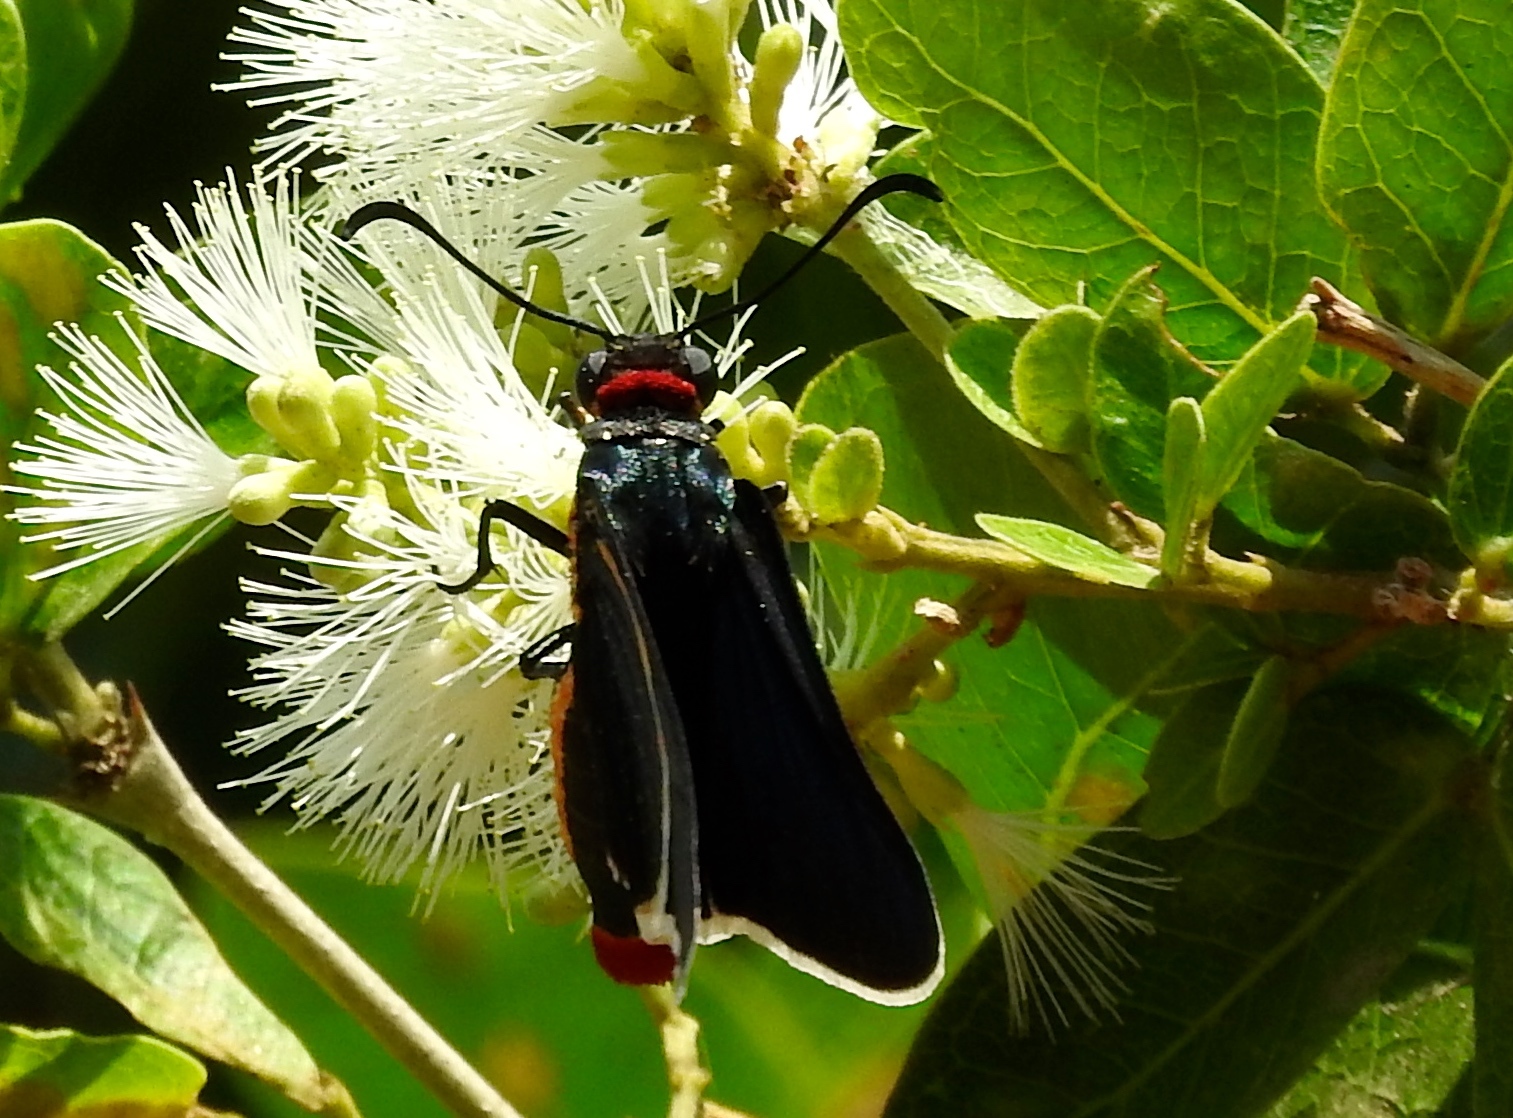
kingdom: Animalia
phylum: Arthropoda
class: Insecta
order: Lepidoptera
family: Hesperiidae
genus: Mysoria
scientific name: Mysoria affinis
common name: Red-collared firetip
